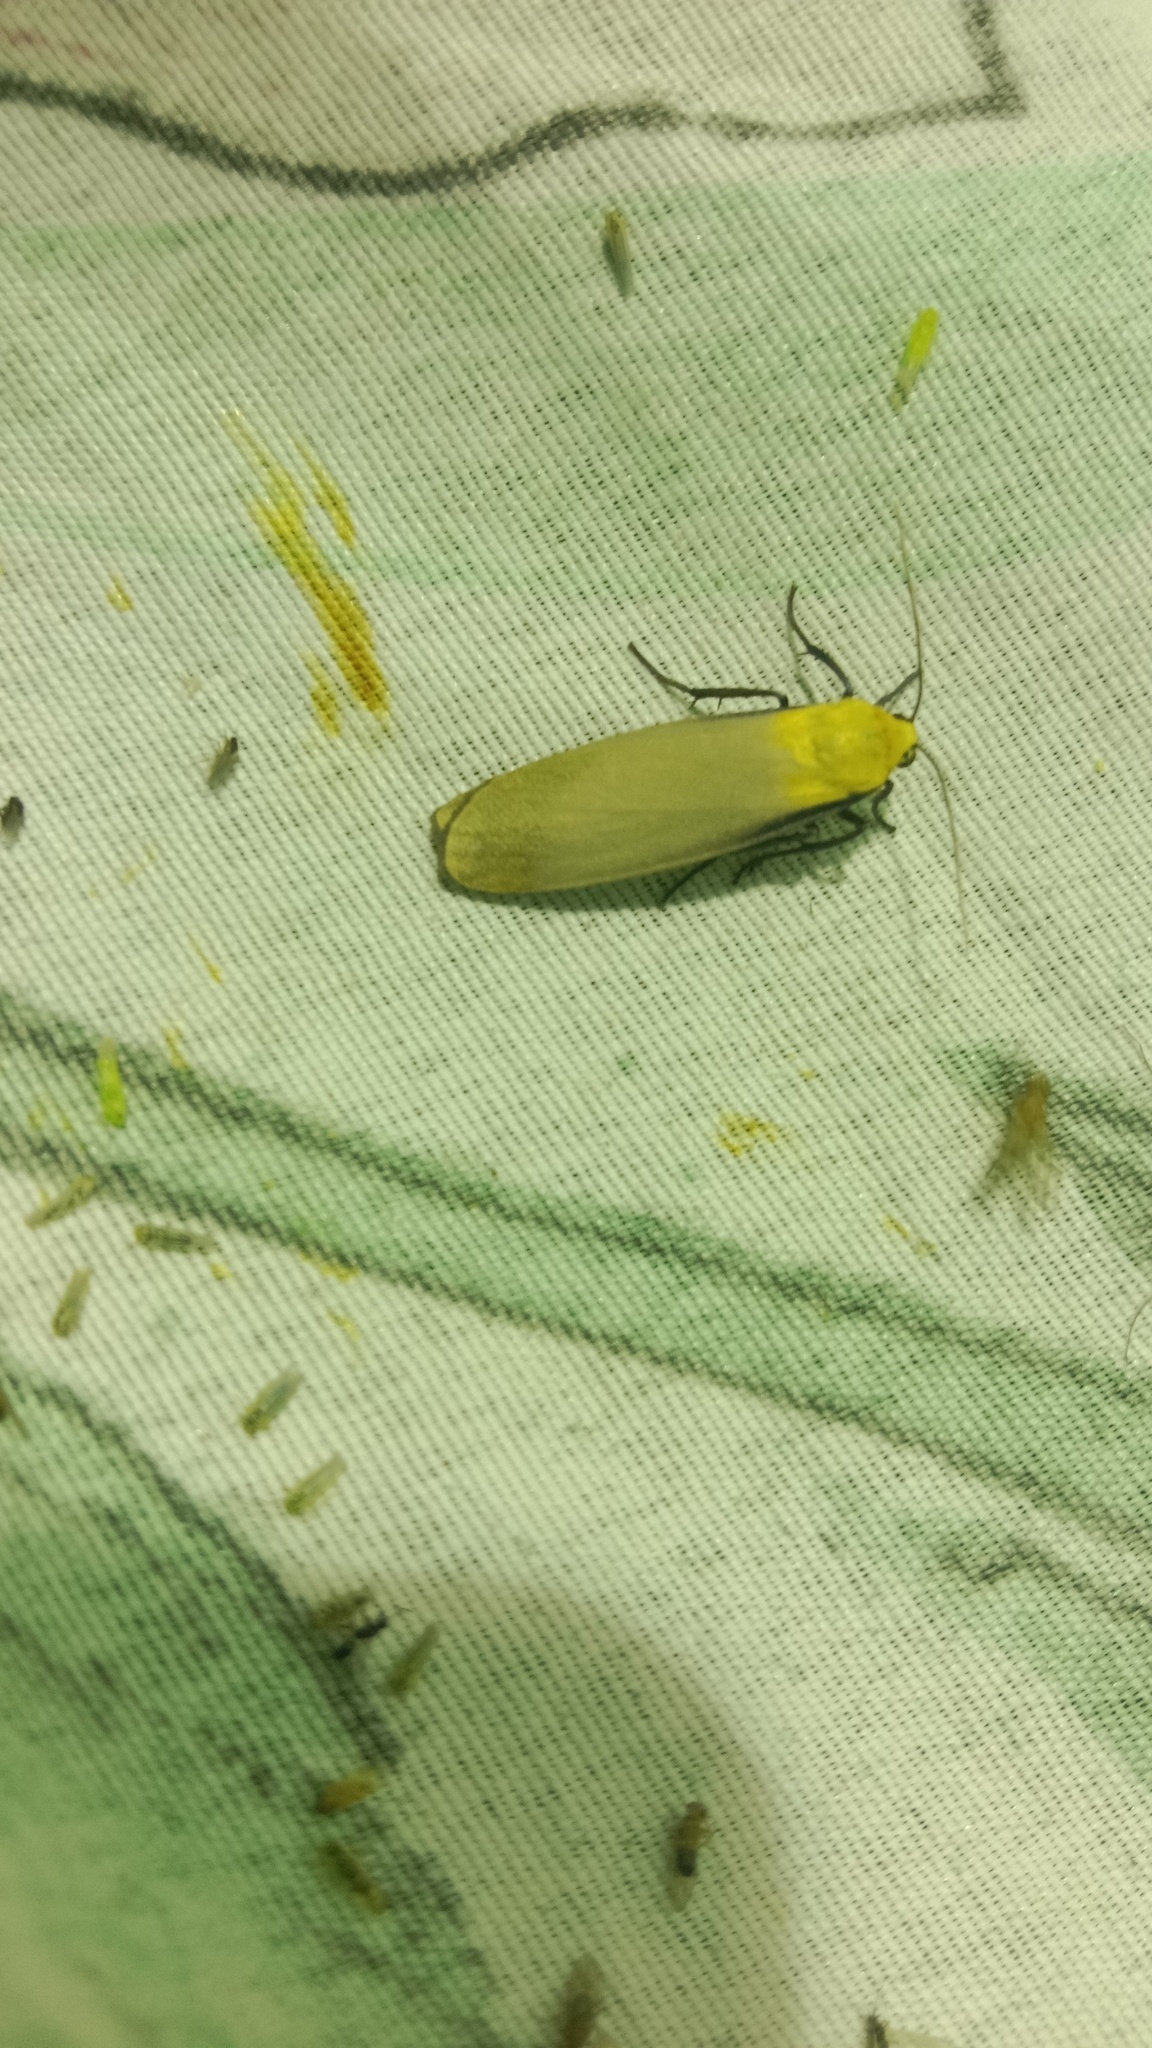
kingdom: Animalia
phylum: Arthropoda
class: Insecta
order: Lepidoptera
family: Erebidae
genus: Lithosia
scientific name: Lithosia quadra
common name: Four-spotted footman
